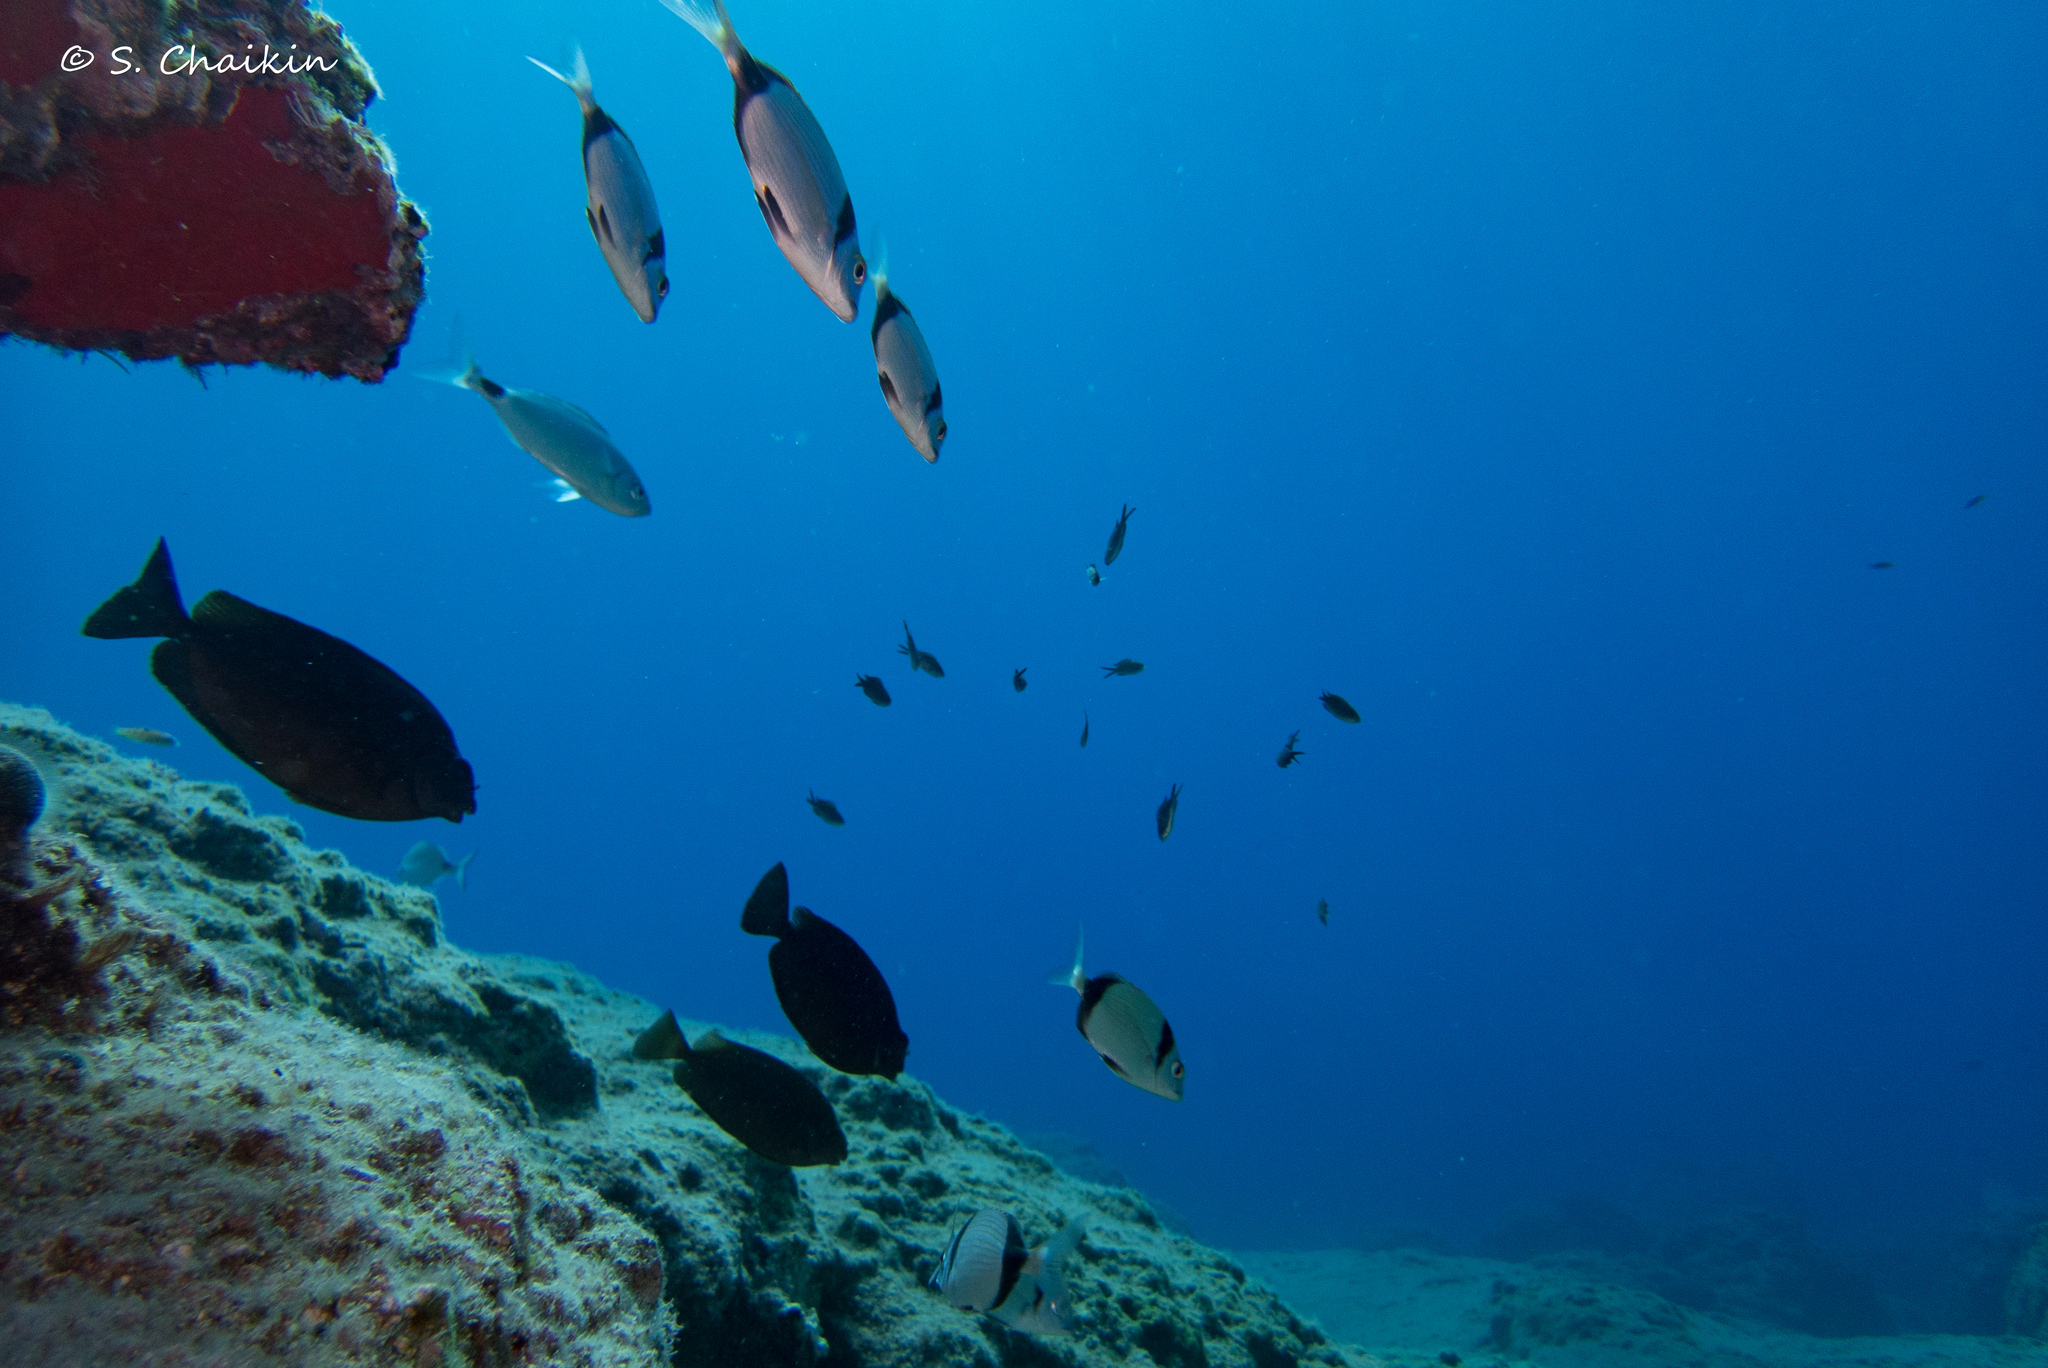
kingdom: Animalia
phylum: Chordata
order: Perciformes
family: Siganidae
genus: Siganus
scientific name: Siganus luridus
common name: Dusky spinefoot
